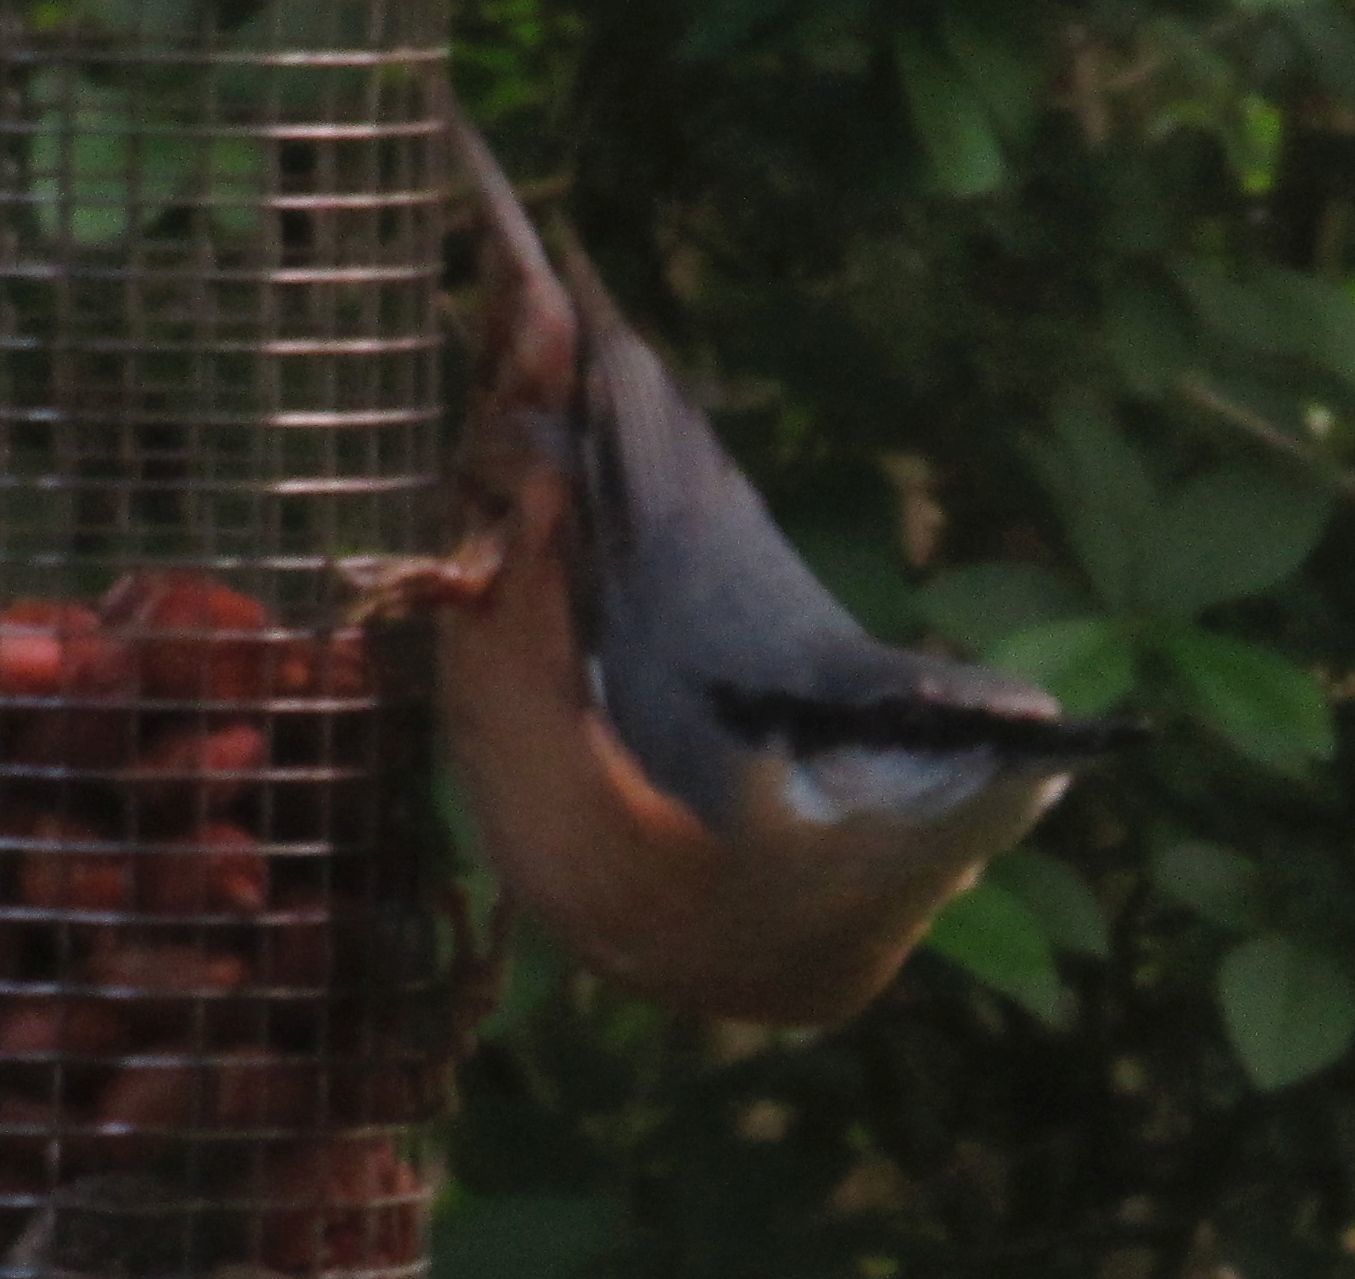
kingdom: Animalia
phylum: Chordata
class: Aves
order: Passeriformes
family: Sittidae
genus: Sitta
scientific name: Sitta europaea
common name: Eurasian nuthatch
